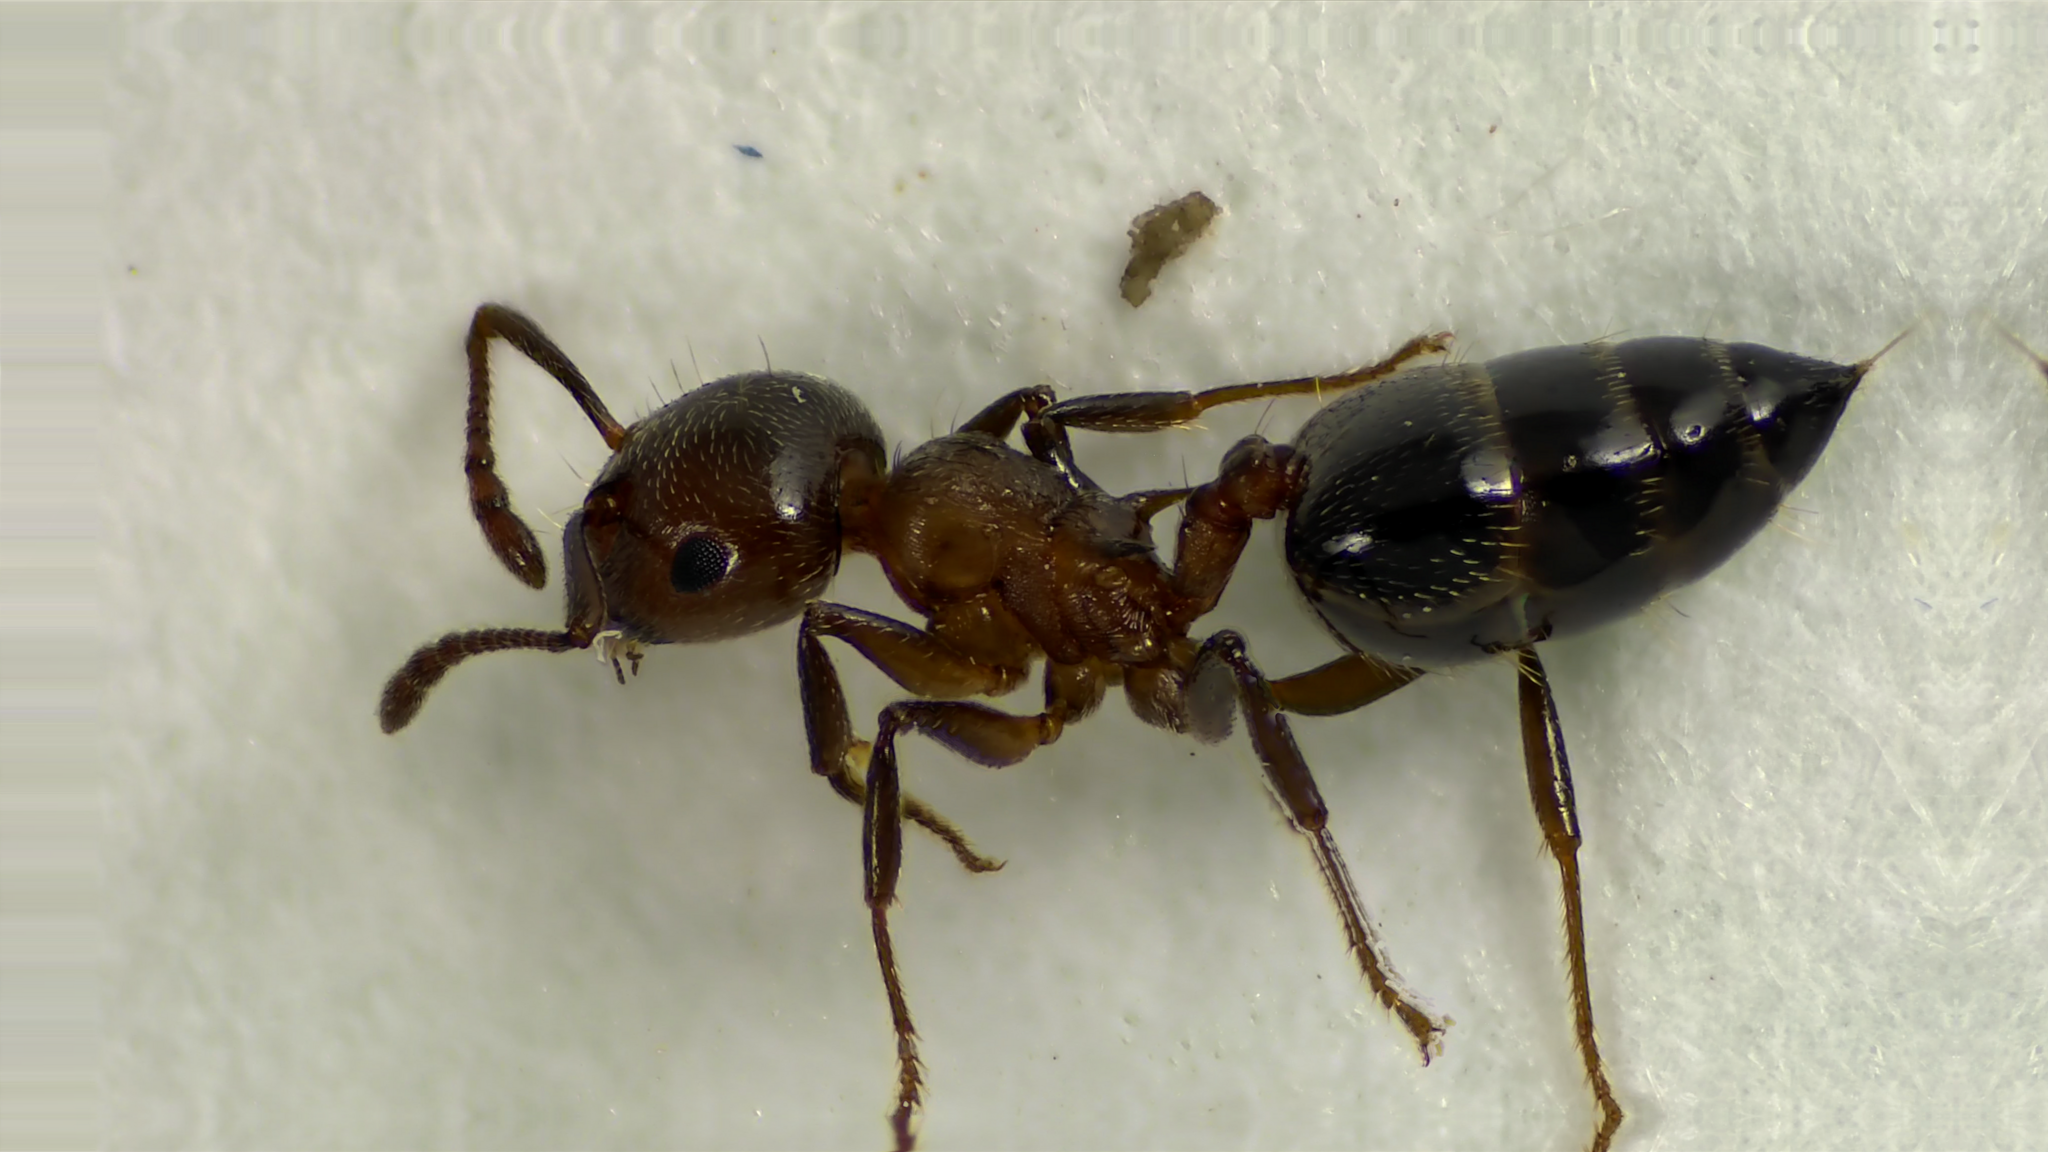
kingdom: Animalia
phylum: Arthropoda
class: Insecta
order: Hymenoptera
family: Formicidae
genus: Crematogaster
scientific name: Crematogaster cerasi
